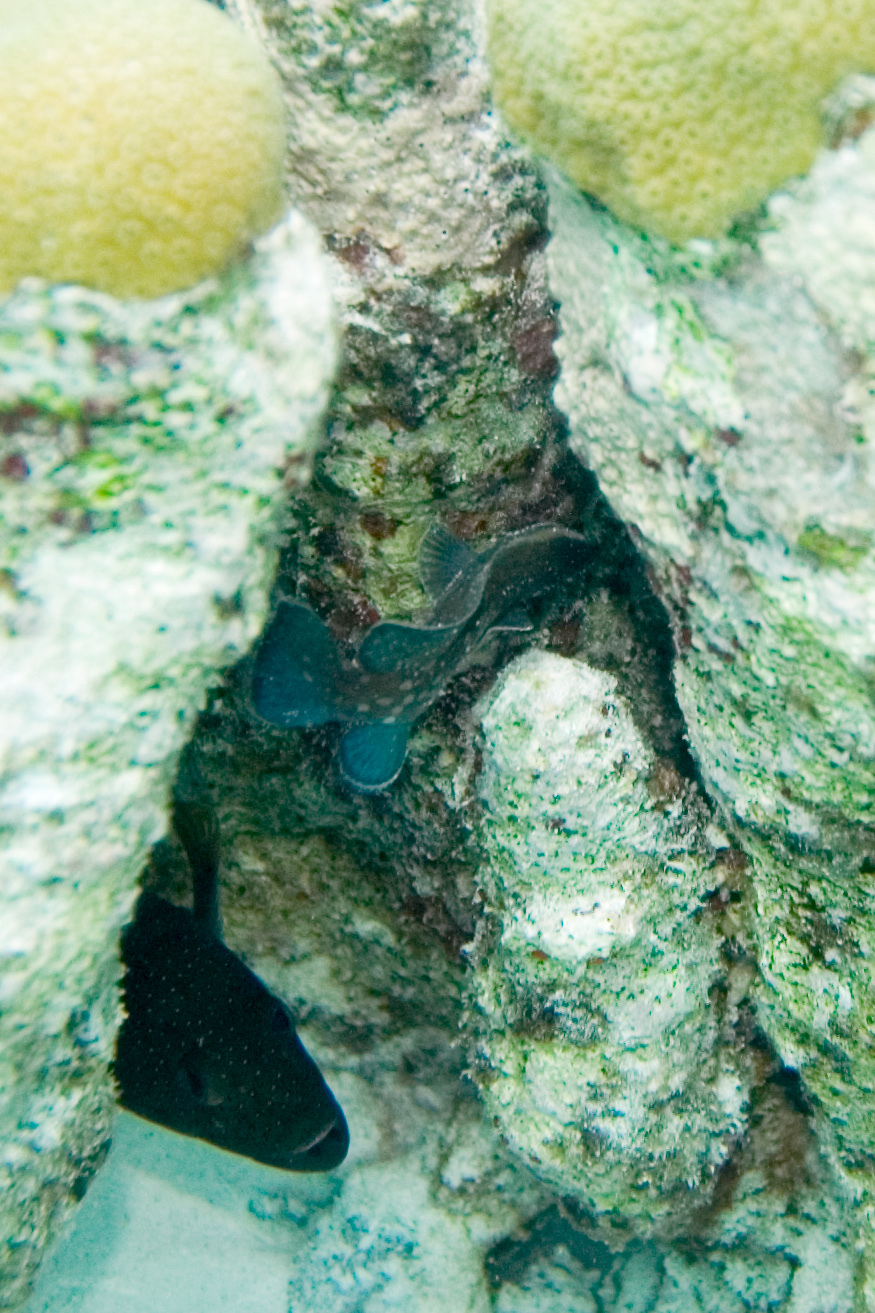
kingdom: Animalia
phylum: Chordata
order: Perciformes
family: Serranidae
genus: Cephalopholis
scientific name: Cephalopholis fulva
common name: Butterfish
